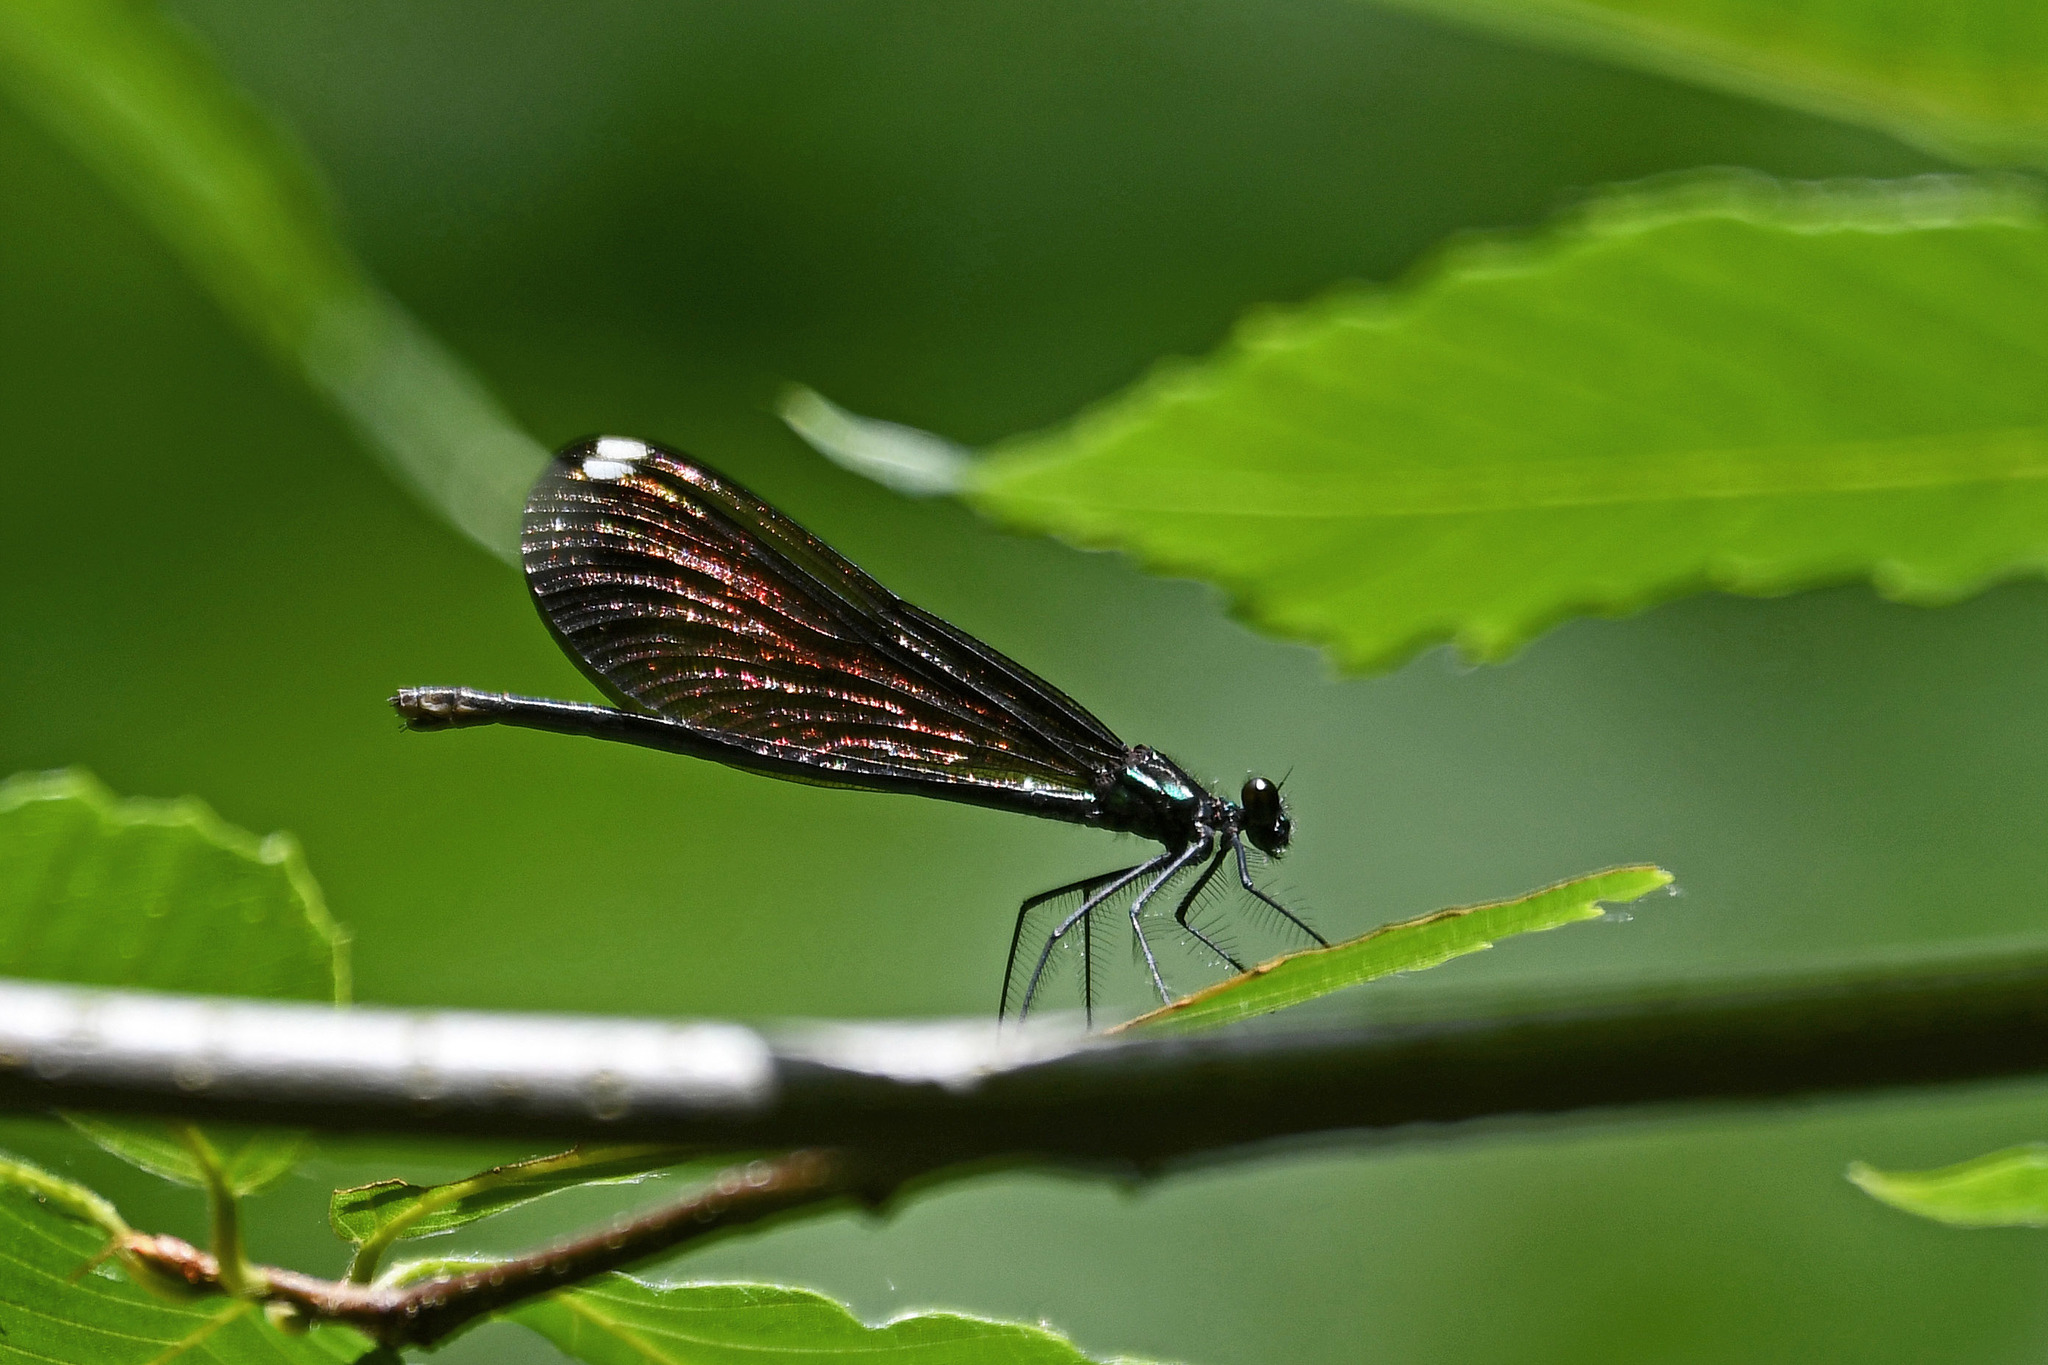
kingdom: Animalia
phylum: Arthropoda
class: Insecta
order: Odonata
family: Calopterygidae
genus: Calopteryx
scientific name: Calopteryx maculata
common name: Ebony jewelwing
